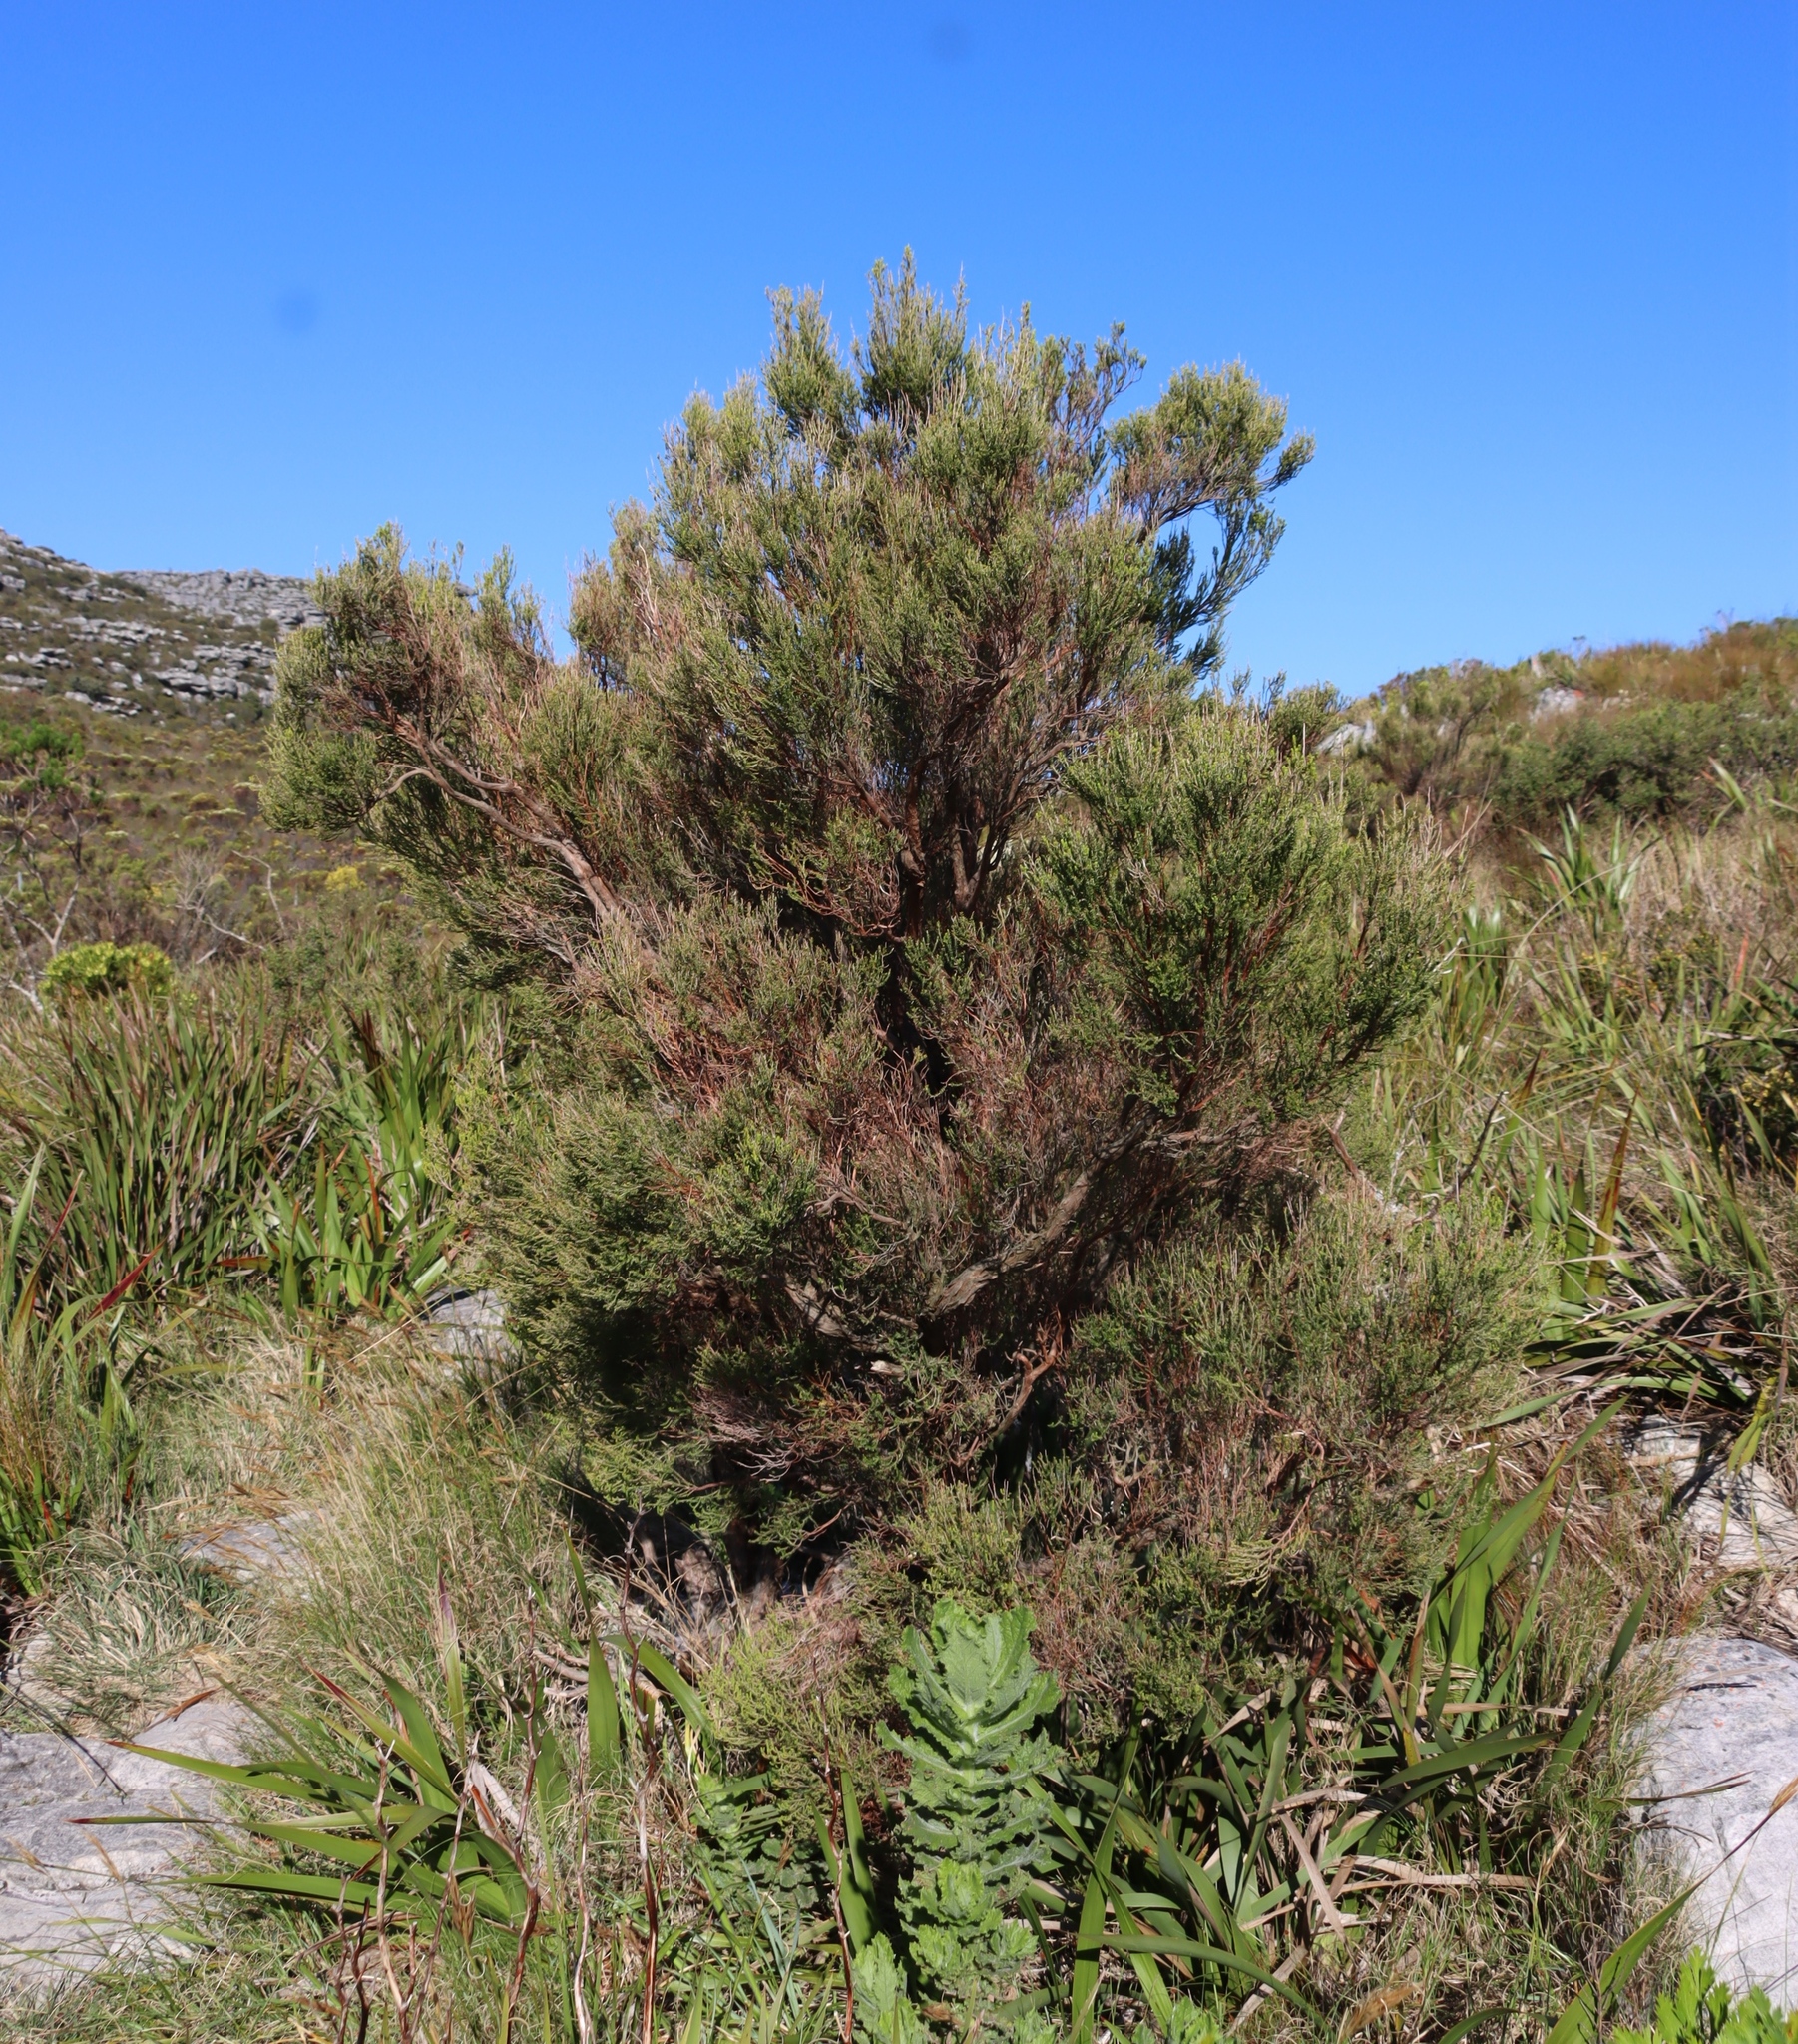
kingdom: Plantae
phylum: Tracheophyta
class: Magnoliopsida
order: Ericales
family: Ericaceae
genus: Erica
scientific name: Erica tristis
